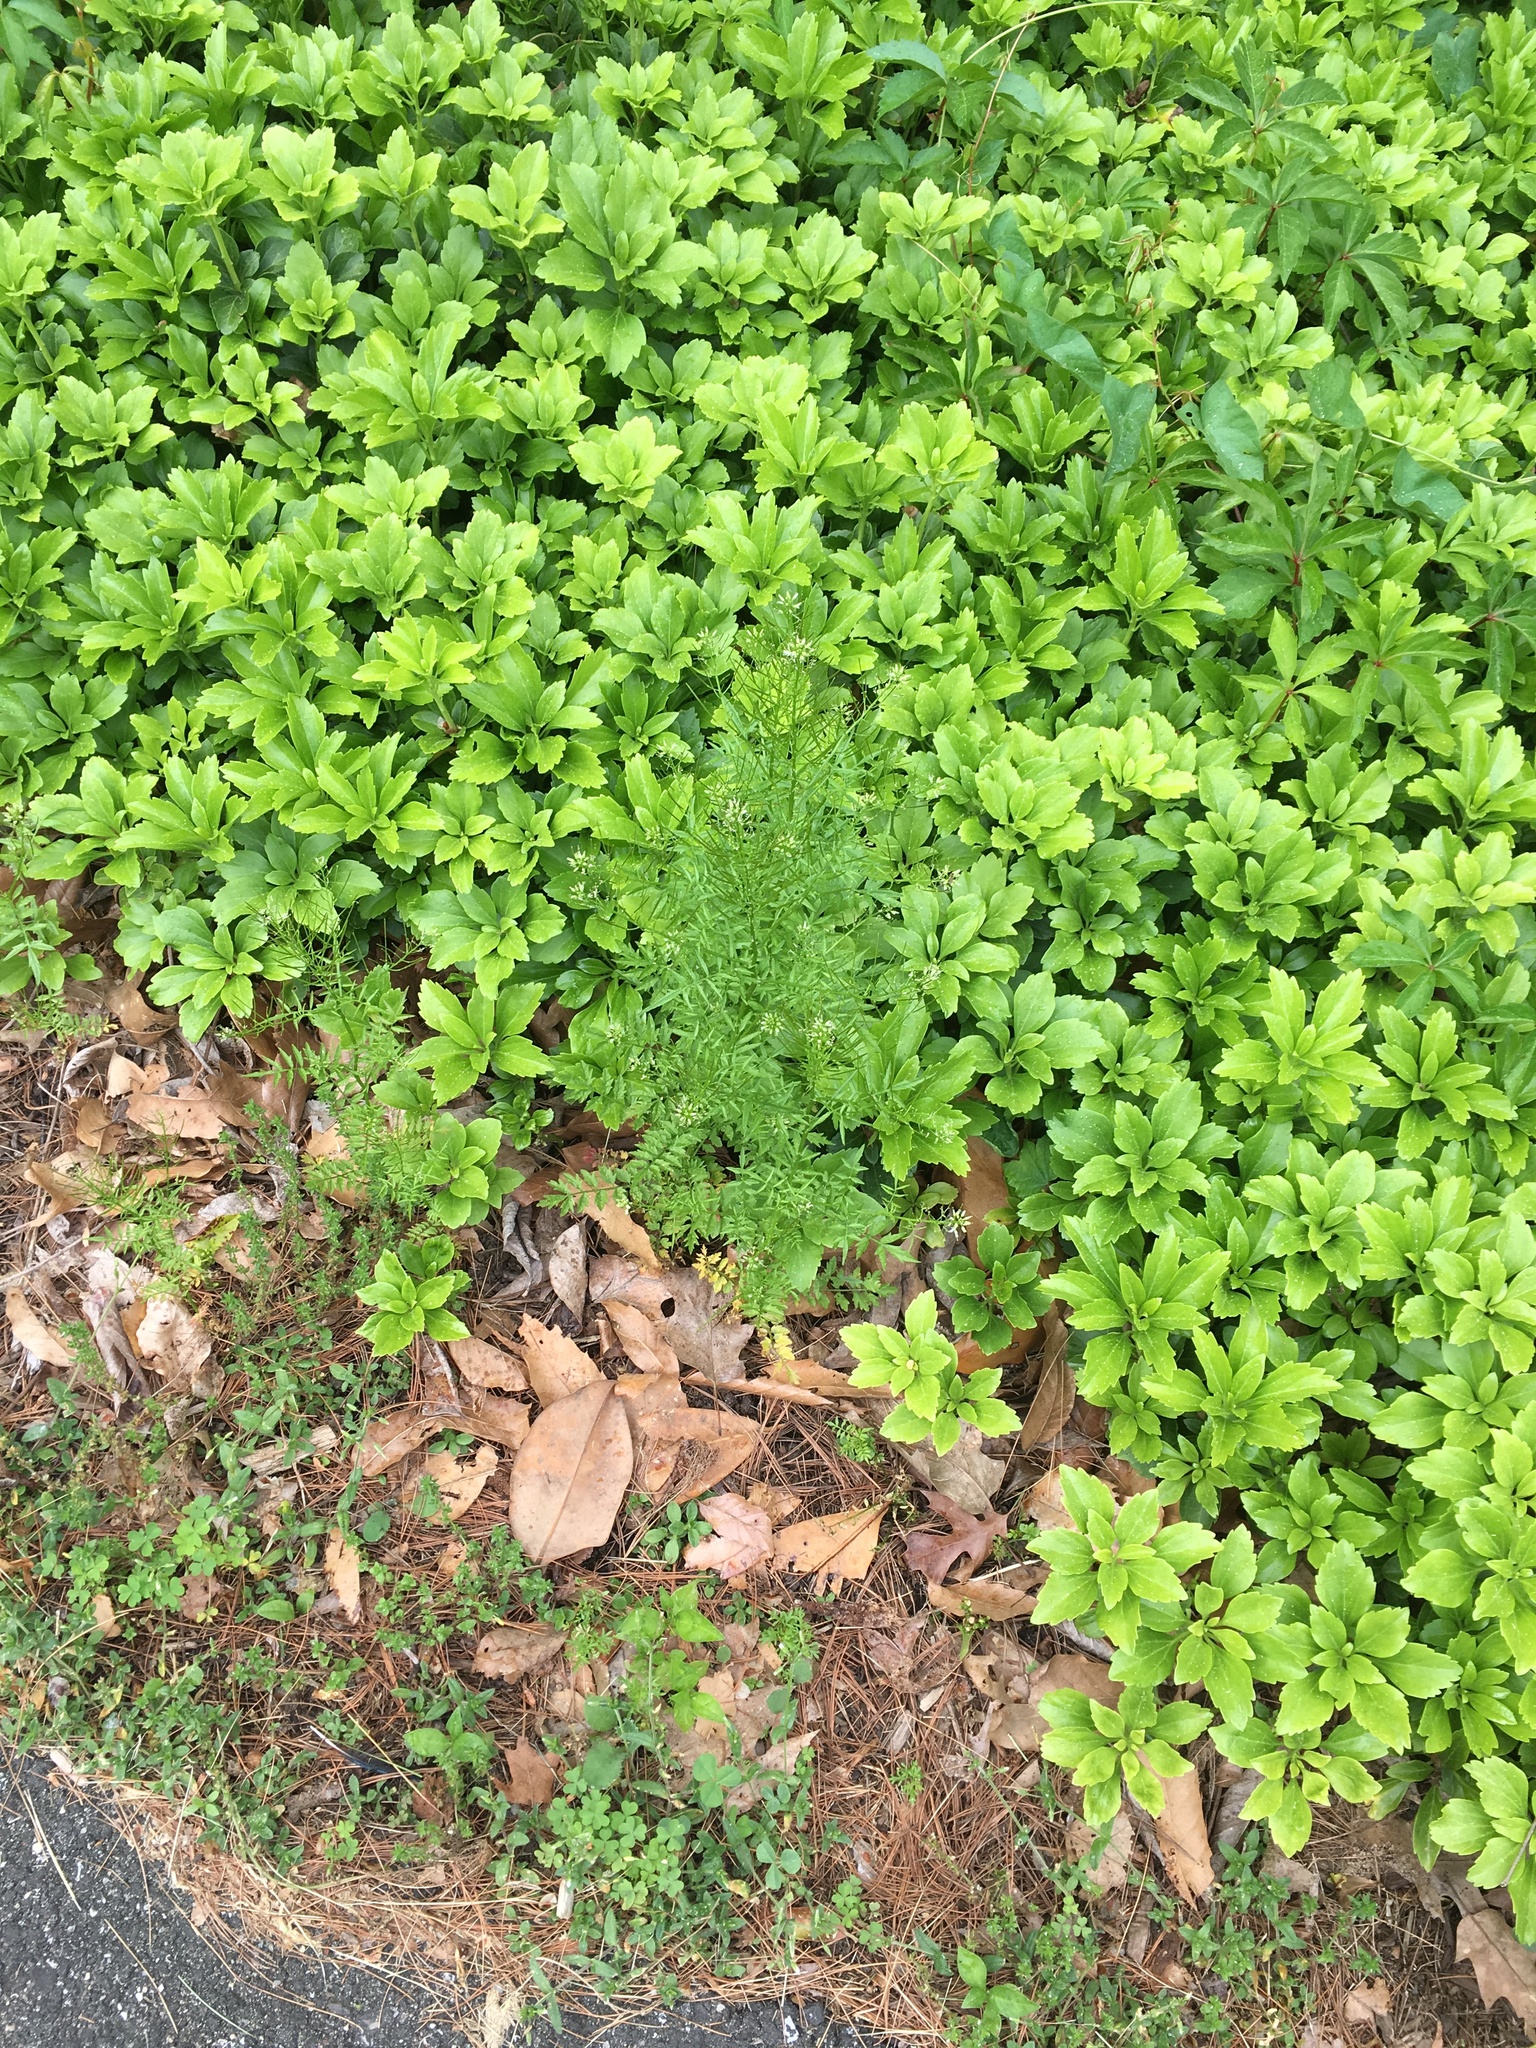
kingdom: Plantae
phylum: Tracheophyta
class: Magnoliopsida
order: Brassicales
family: Brassicaceae
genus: Cardamine
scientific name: Cardamine impatiens
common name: Narrow-leaved bitter-cress
